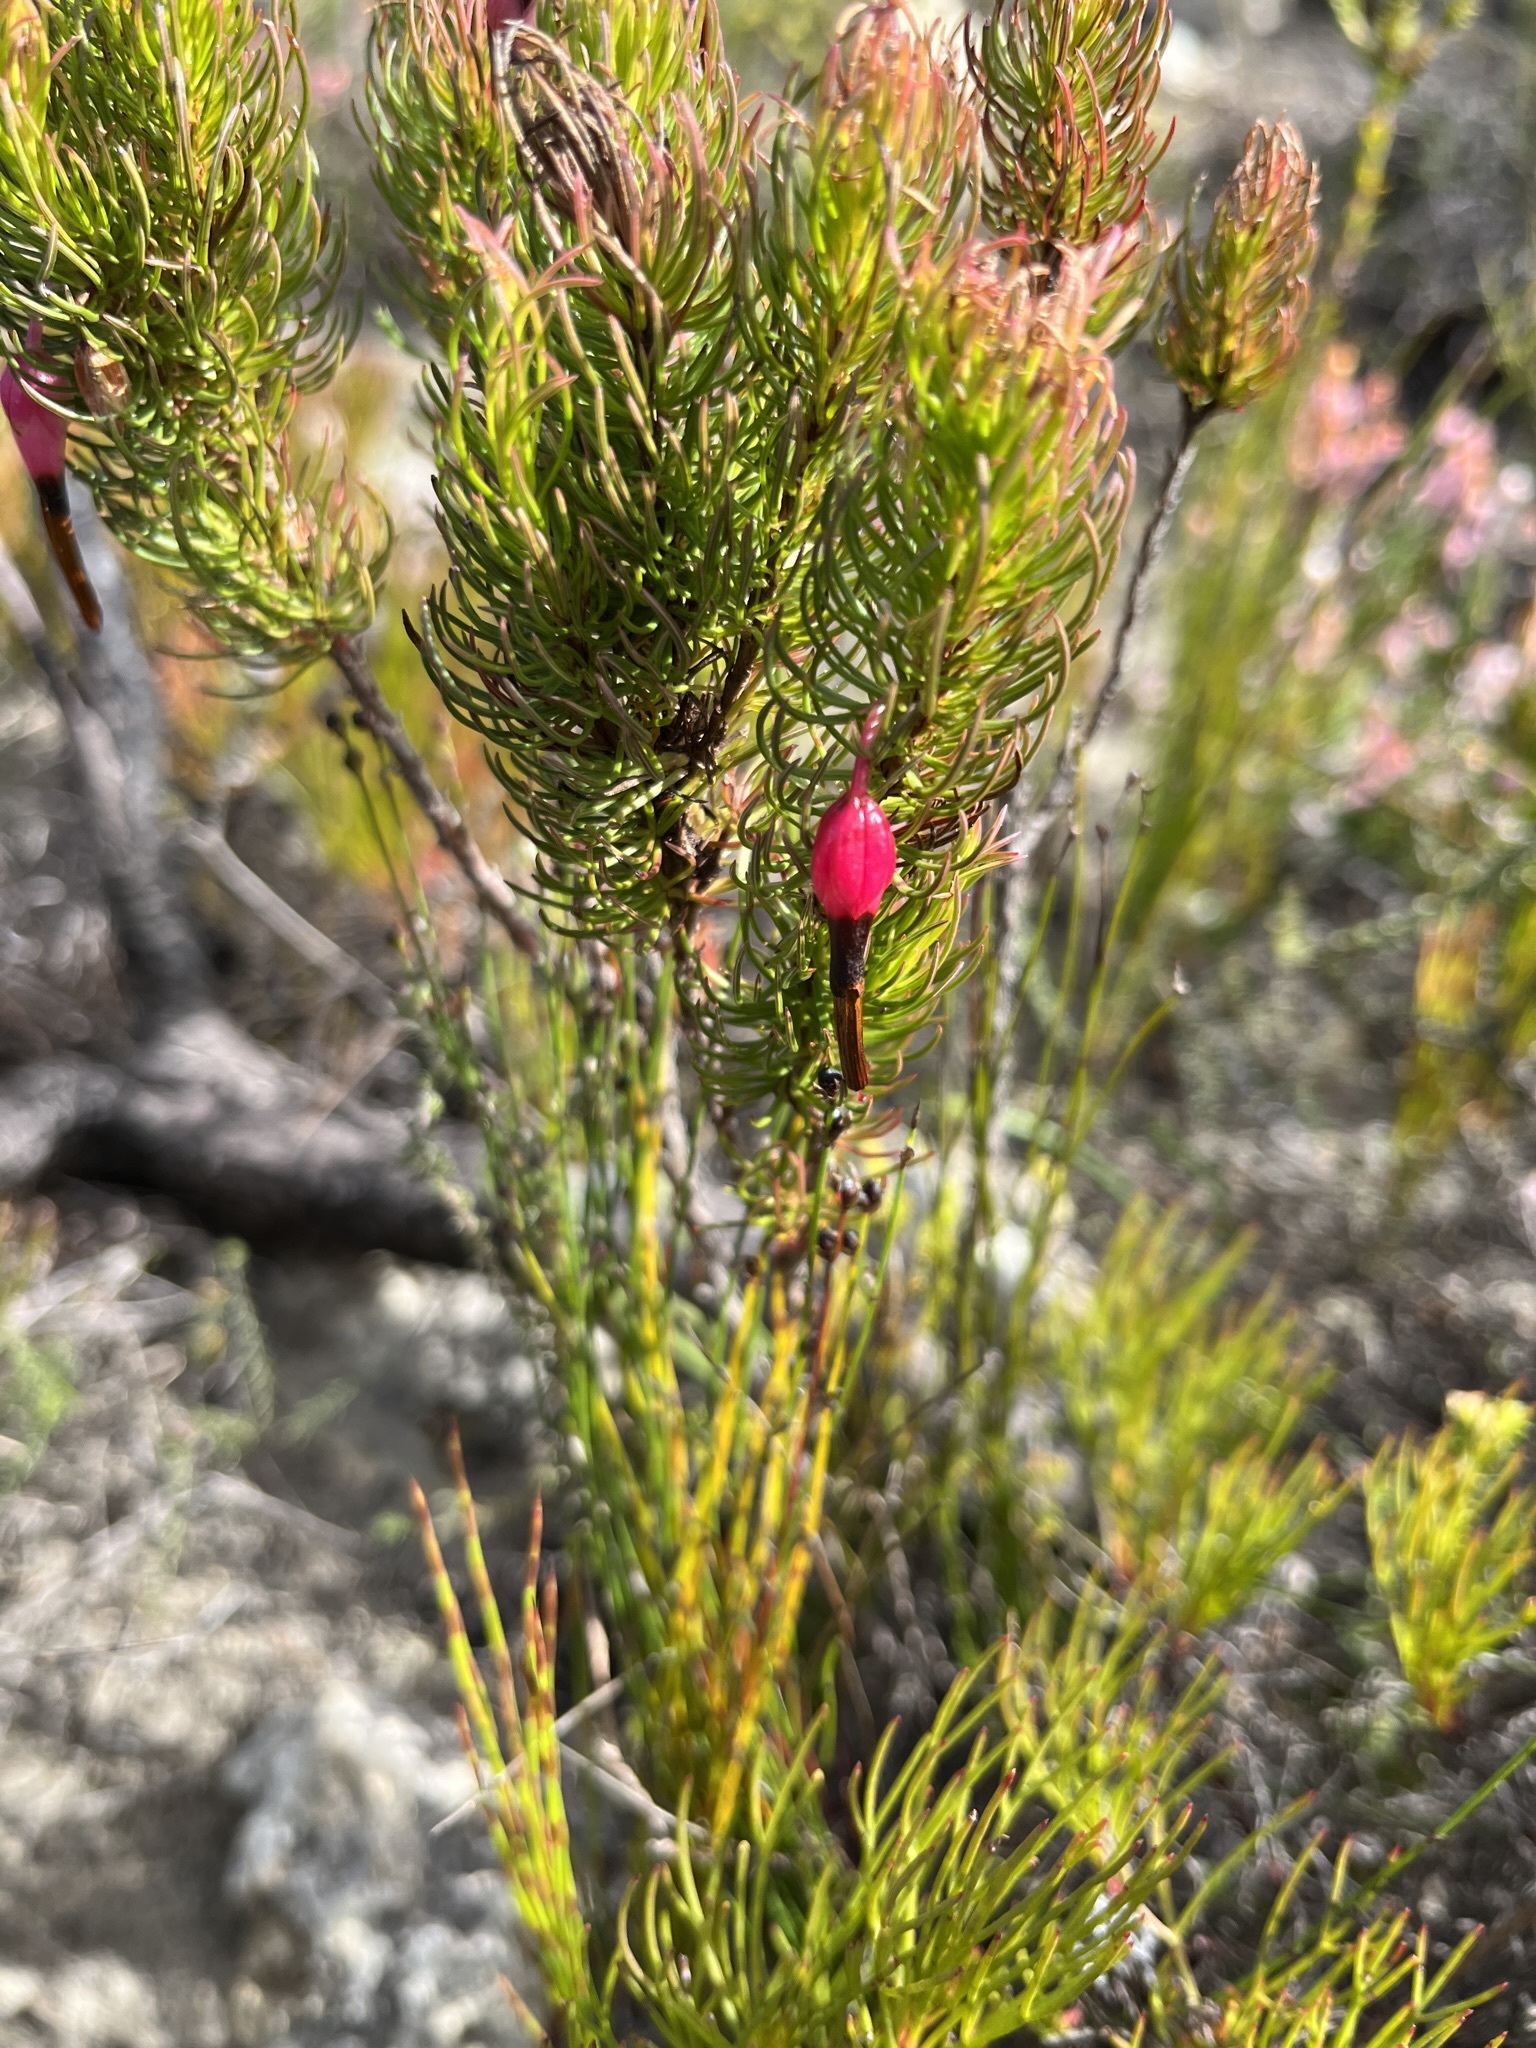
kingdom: Plantae
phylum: Tracheophyta
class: Magnoliopsida
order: Ericales
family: Ericaceae
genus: Erica
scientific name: Erica plukenetii
